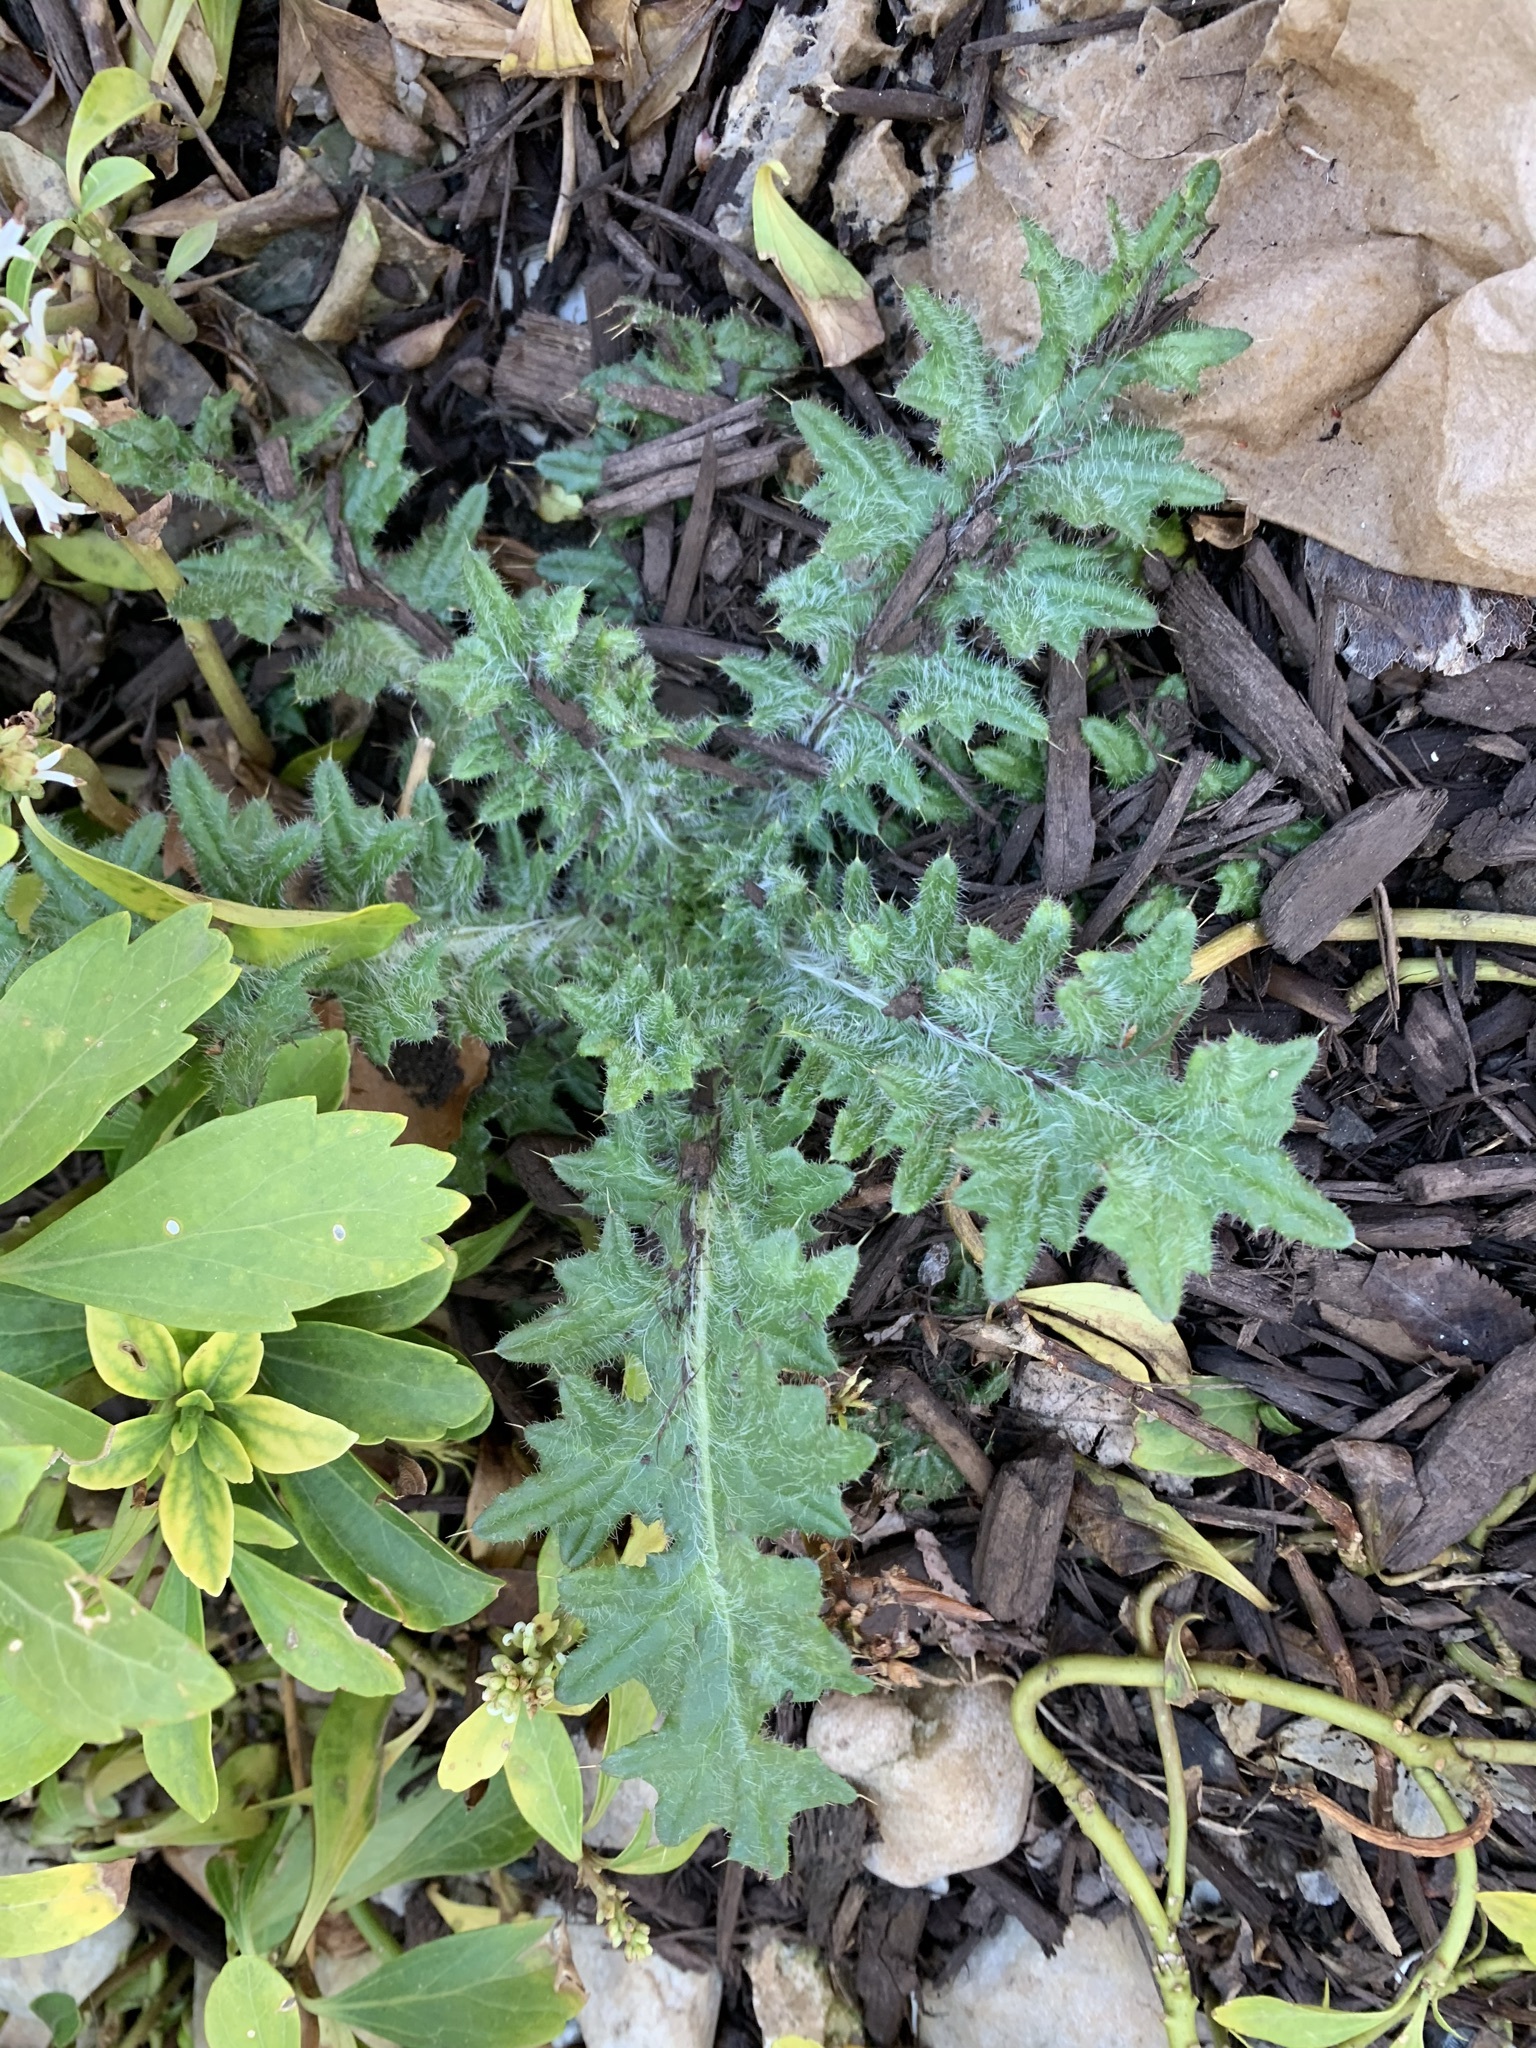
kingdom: Plantae
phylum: Tracheophyta
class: Magnoliopsida
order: Asterales
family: Asteraceae
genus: Cirsium
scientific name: Cirsium vulgare
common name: Bull thistle
